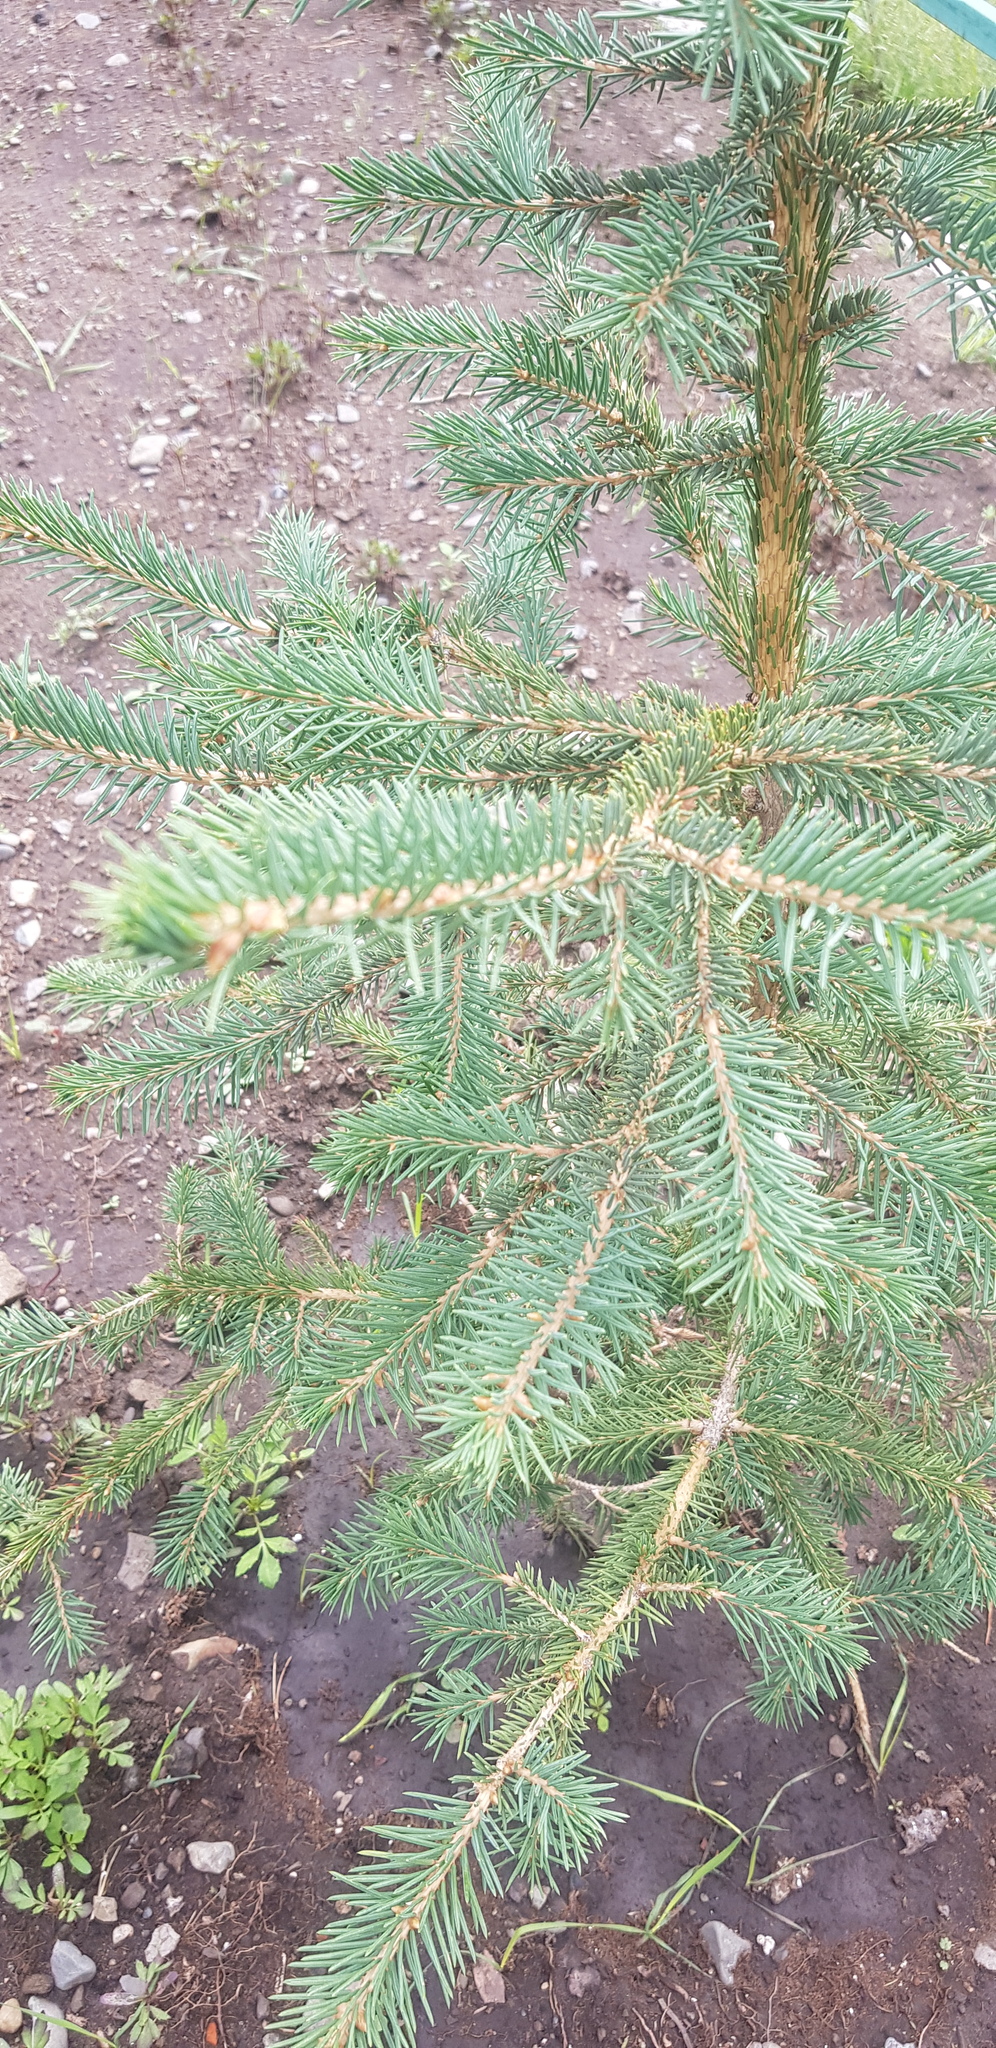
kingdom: Plantae
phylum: Tracheophyta
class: Pinopsida
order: Pinales
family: Pinaceae
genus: Picea
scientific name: Picea obovata
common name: Siberian spruce
